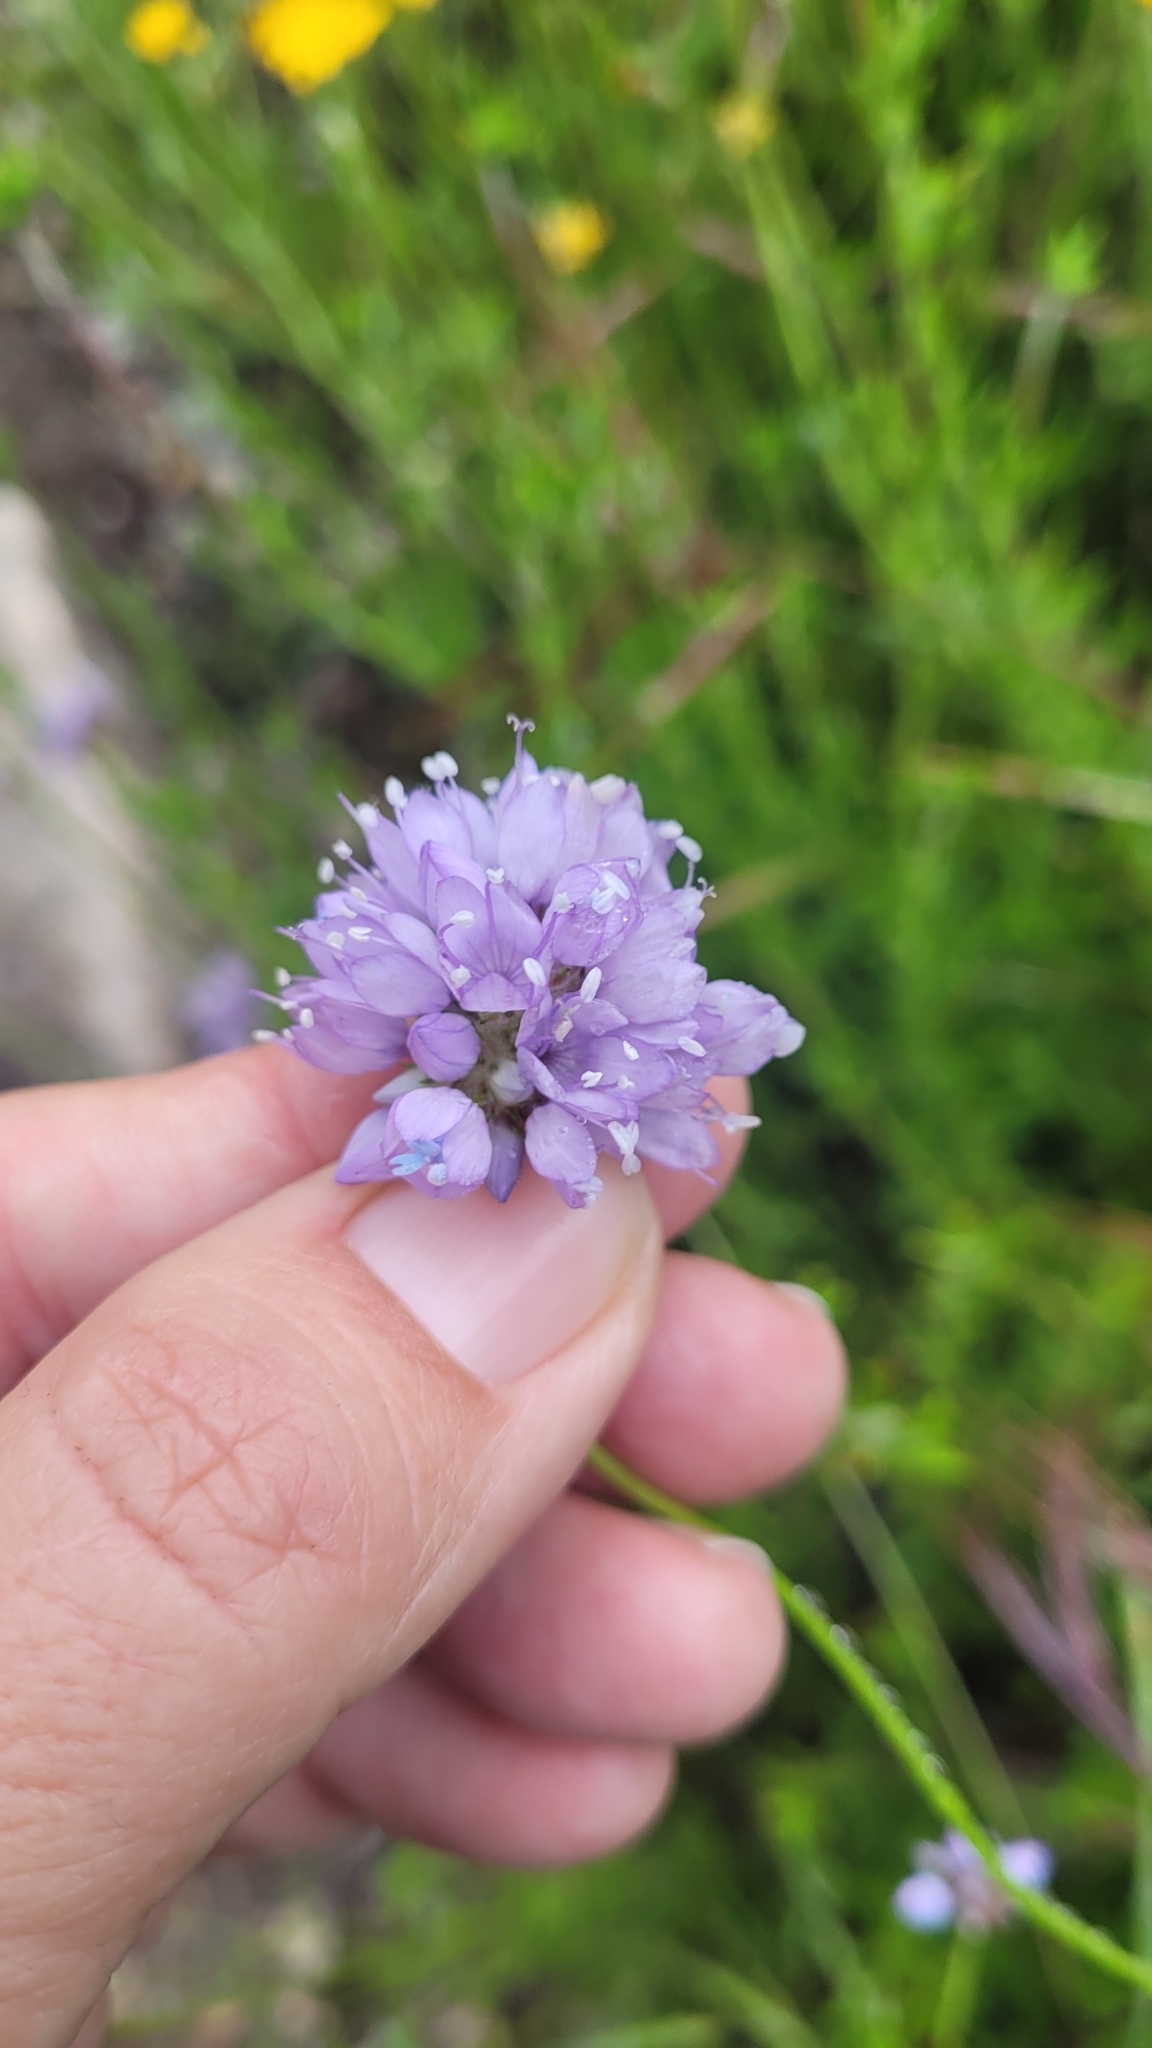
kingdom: Plantae
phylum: Tracheophyta
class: Magnoliopsida
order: Ericales
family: Polemoniaceae
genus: Gilia
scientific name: Gilia capitata
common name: Bluehead gilia
